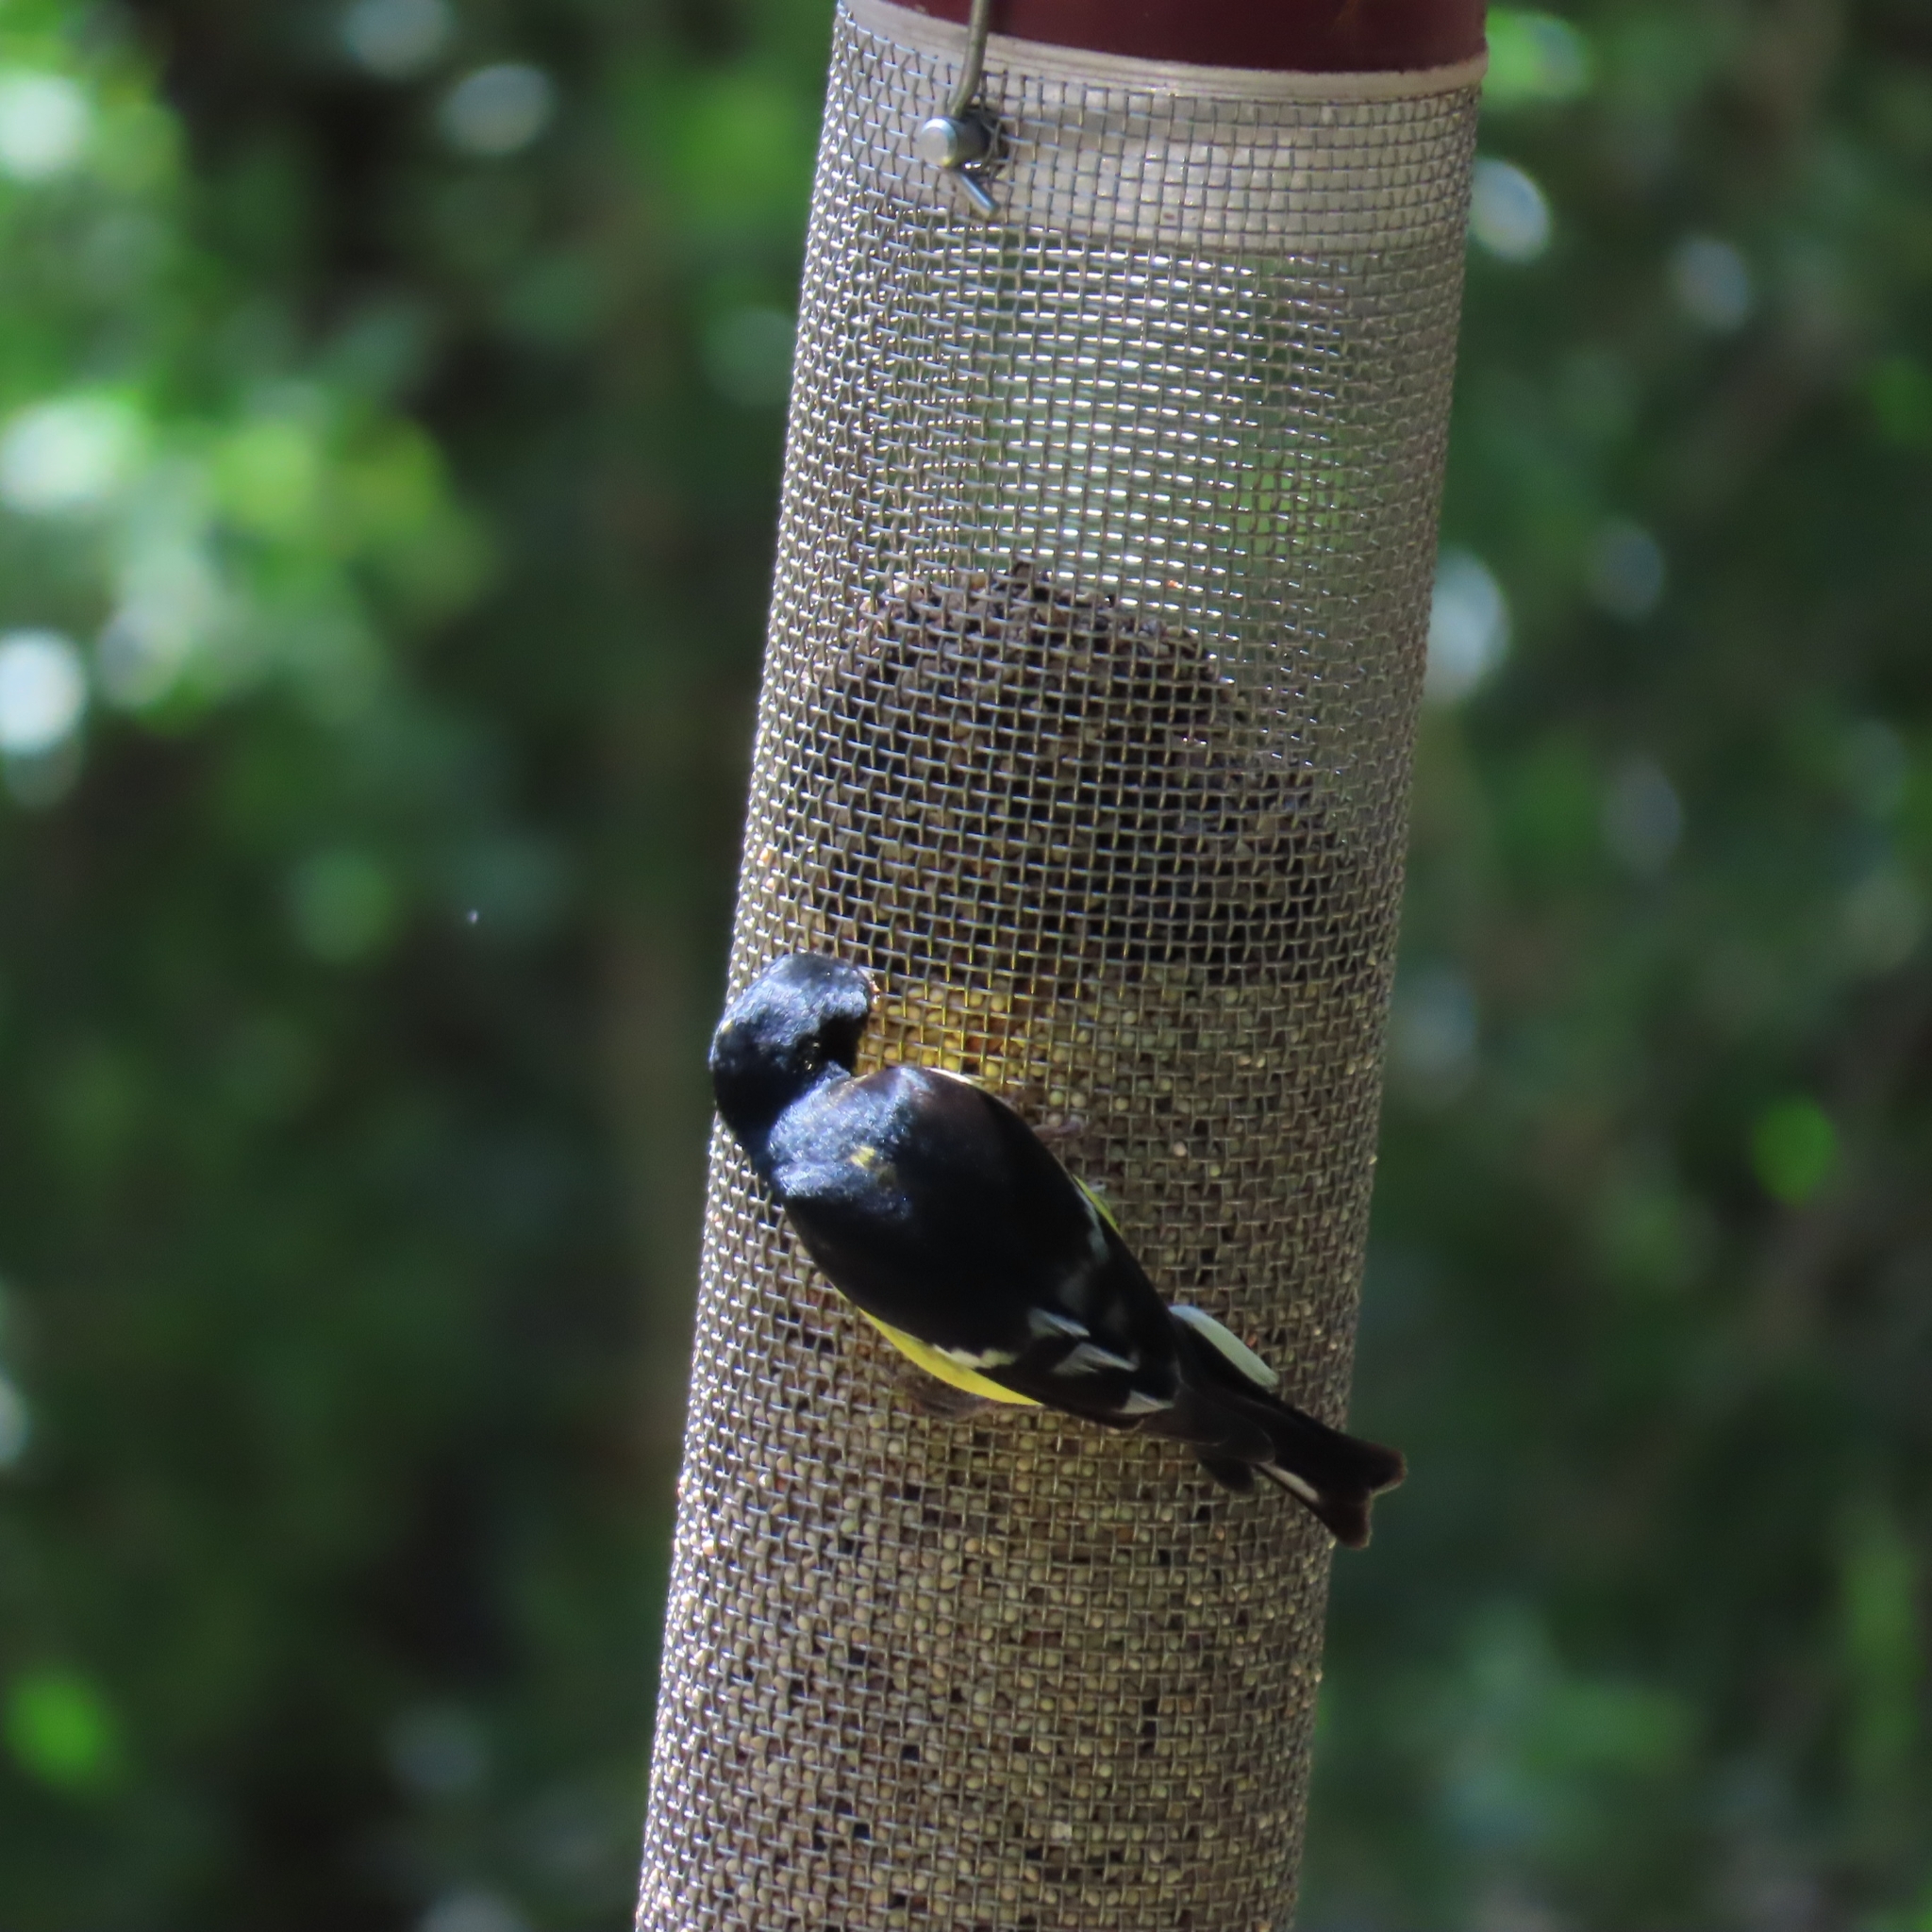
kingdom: Animalia
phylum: Chordata
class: Aves
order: Passeriformes
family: Fringillidae
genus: Spinus
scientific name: Spinus psaltria
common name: Lesser goldfinch
